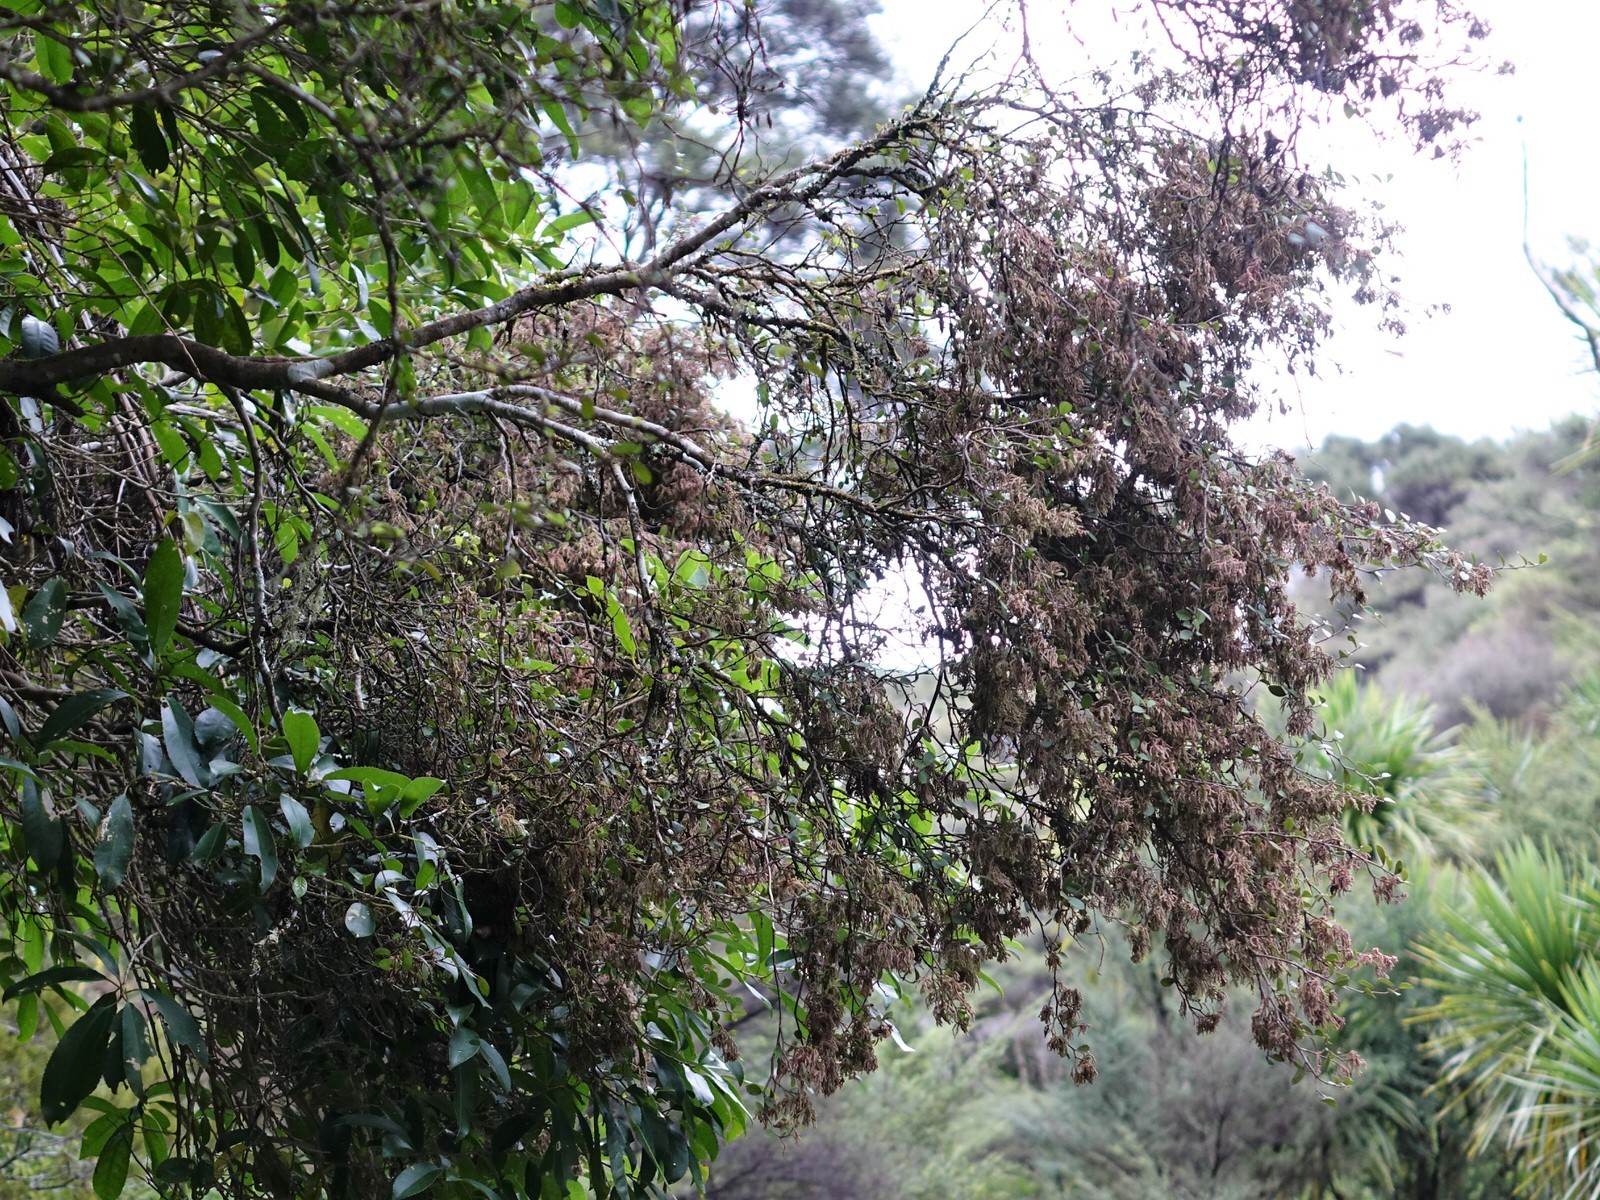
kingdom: Animalia
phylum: Arthropoda
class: Arachnida
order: Trombidiformes
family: Eriophyidae
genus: Eriophyes
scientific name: Eriophyes
